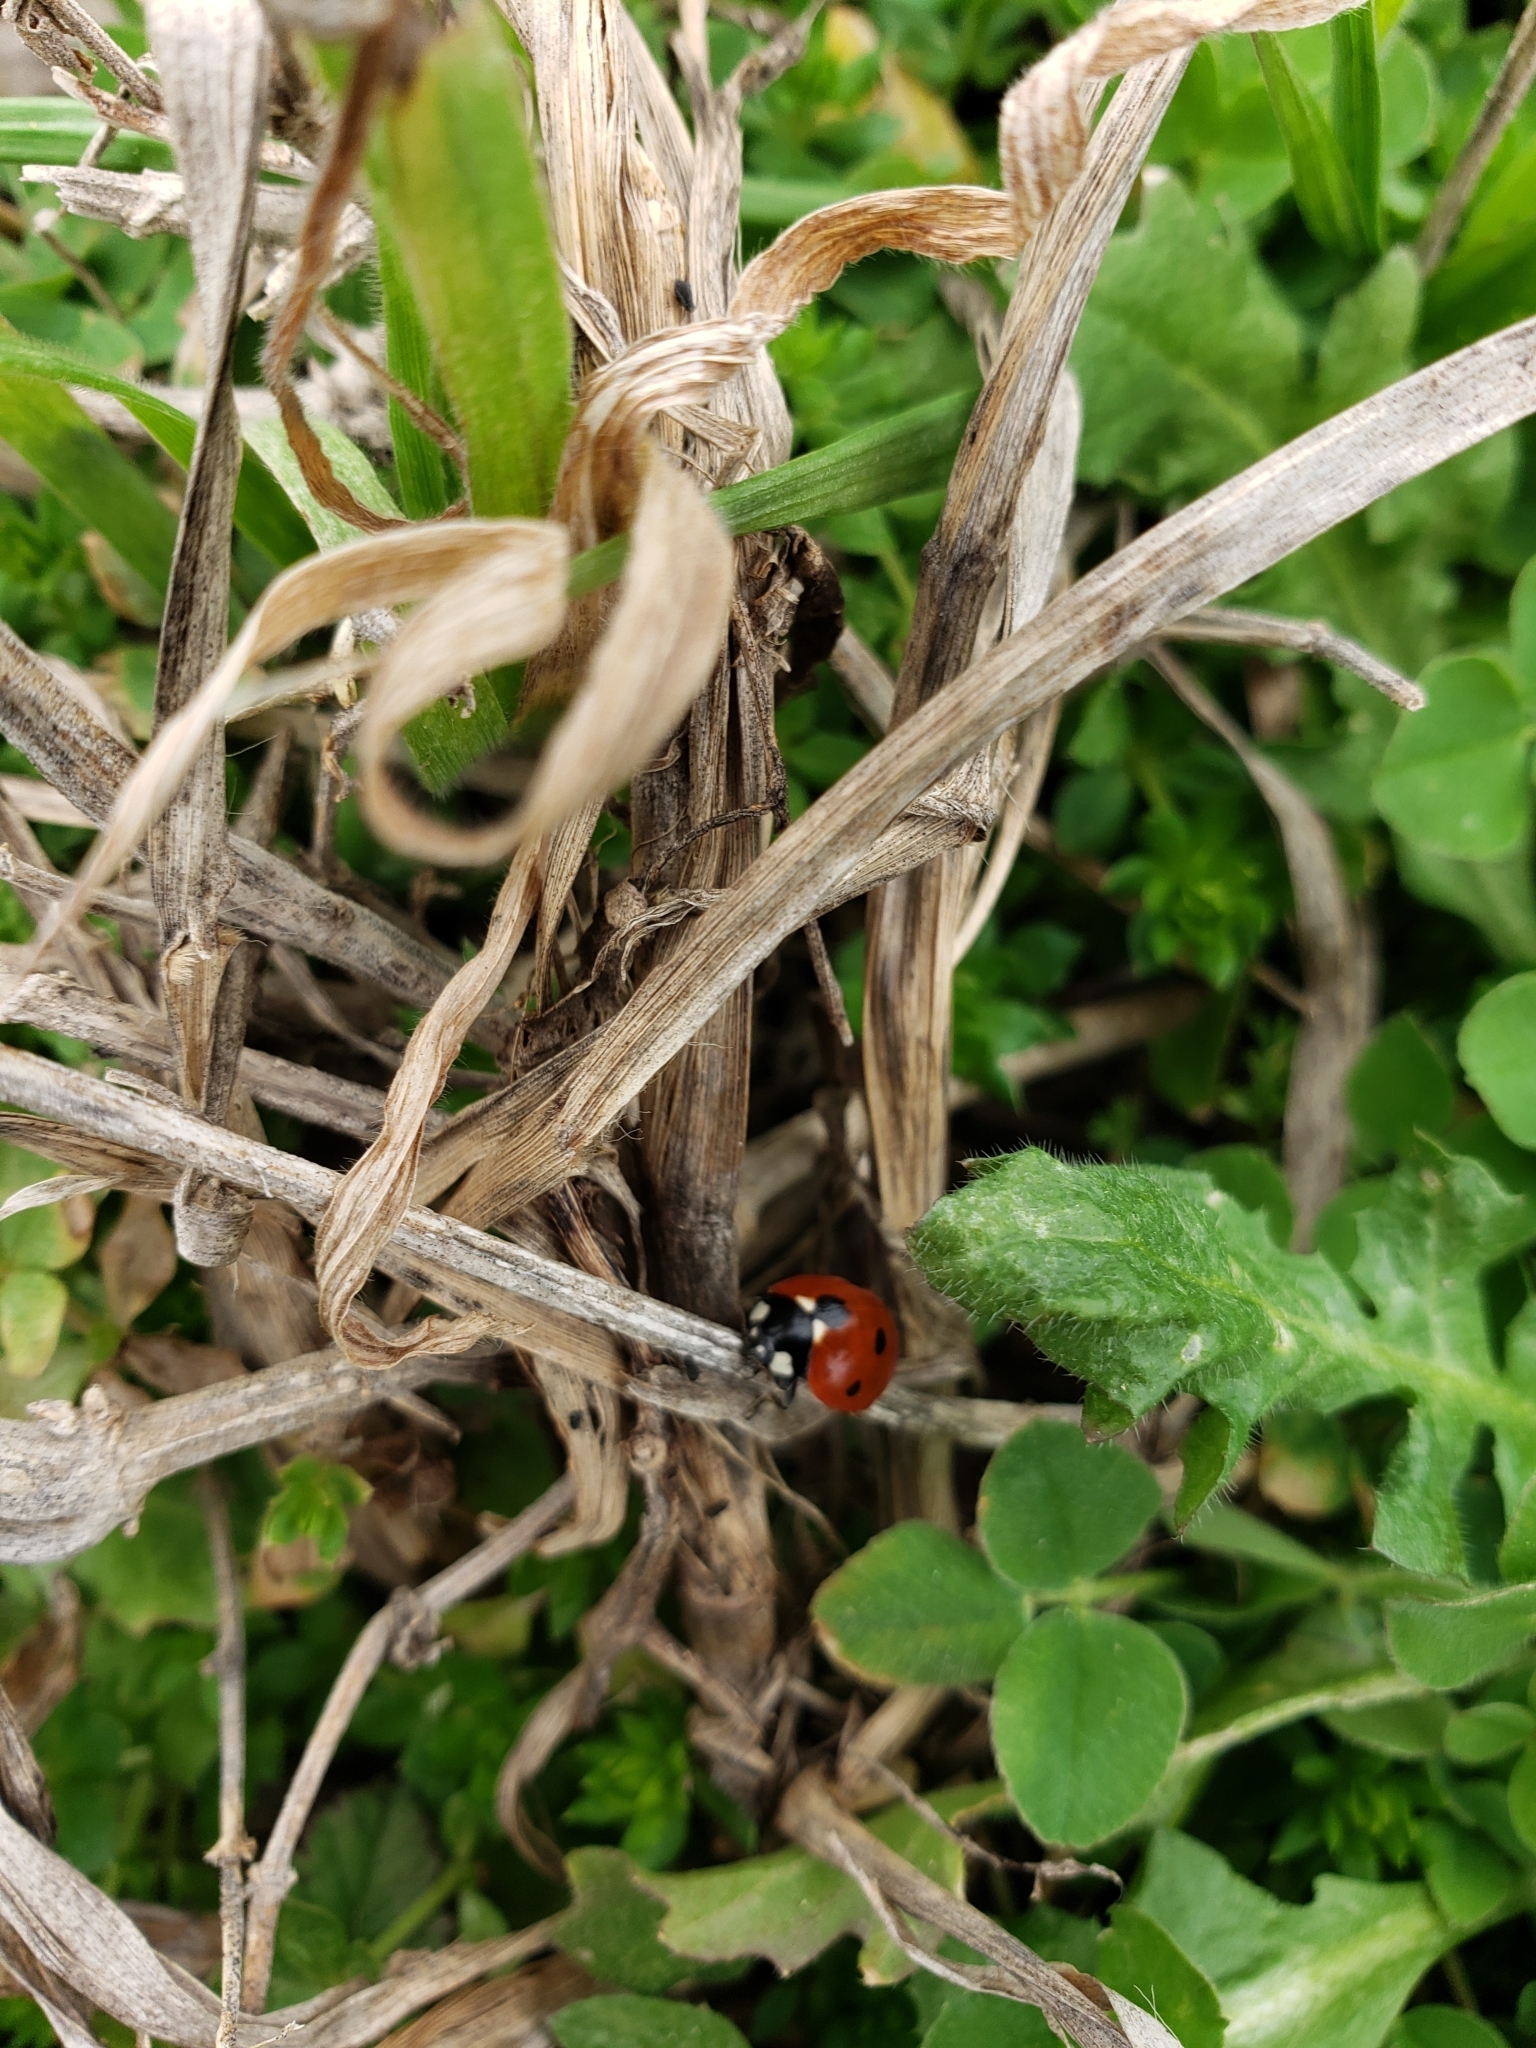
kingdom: Animalia
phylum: Arthropoda
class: Insecta
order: Coleoptera
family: Coccinellidae
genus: Coccinella
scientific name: Coccinella septempunctata
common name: Sevenspotted lady beetle
